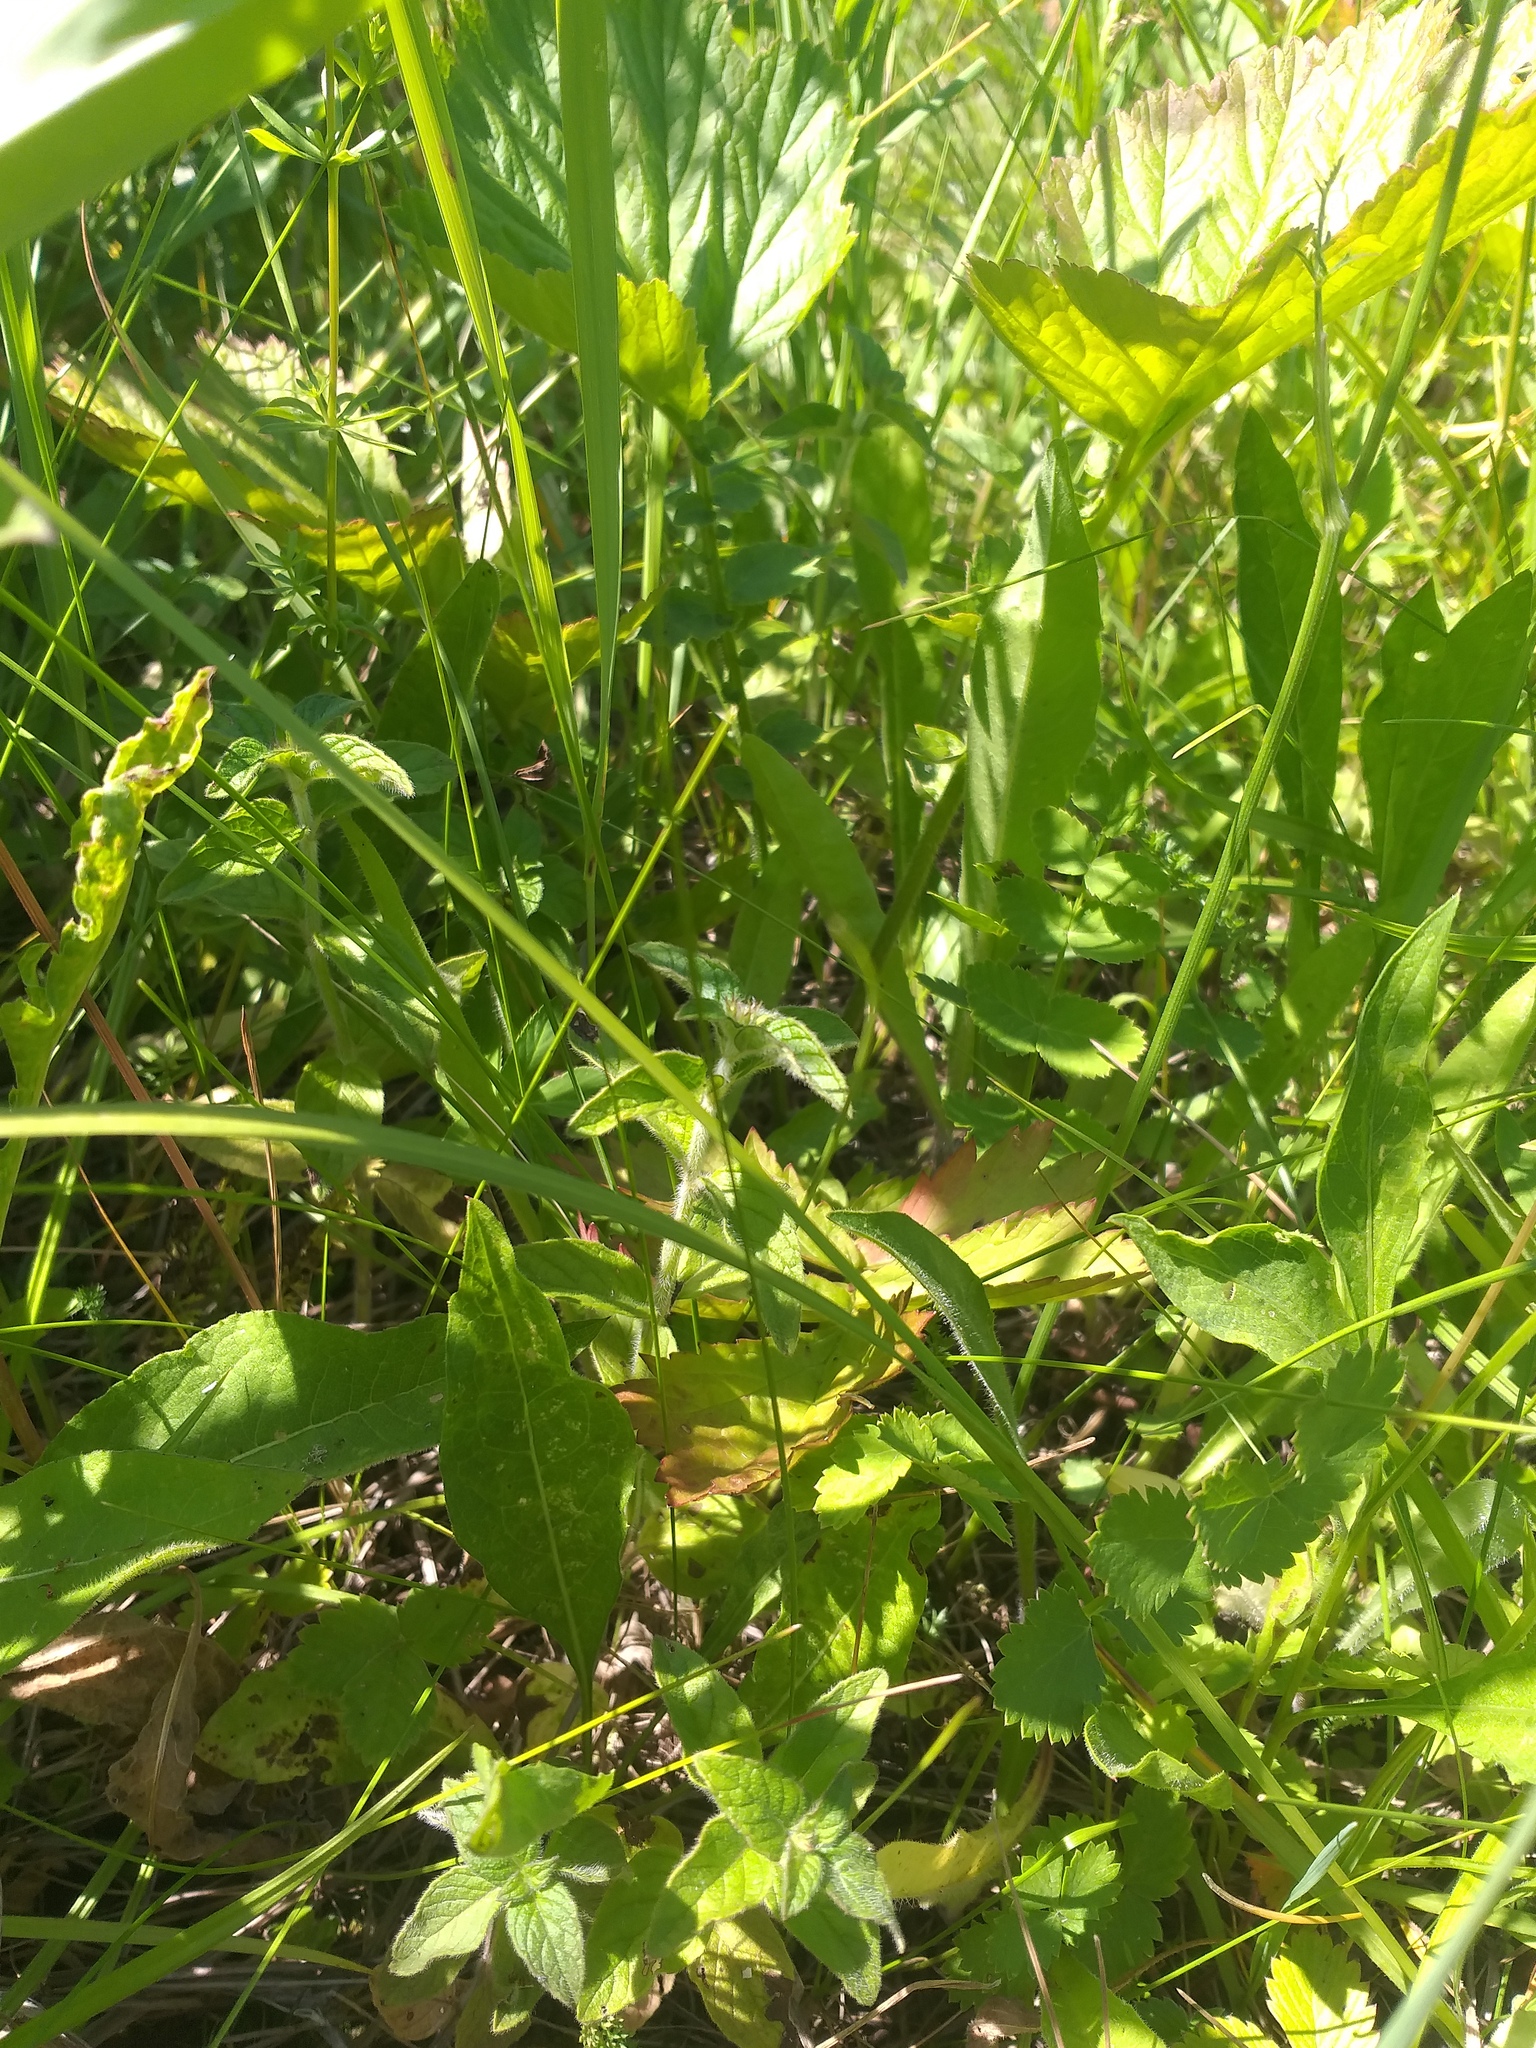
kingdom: Plantae
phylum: Tracheophyta
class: Magnoliopsida
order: Lamiales
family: Lamiaceae
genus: Clinopodium
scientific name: Clinopodium vulgare
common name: Wild basil
